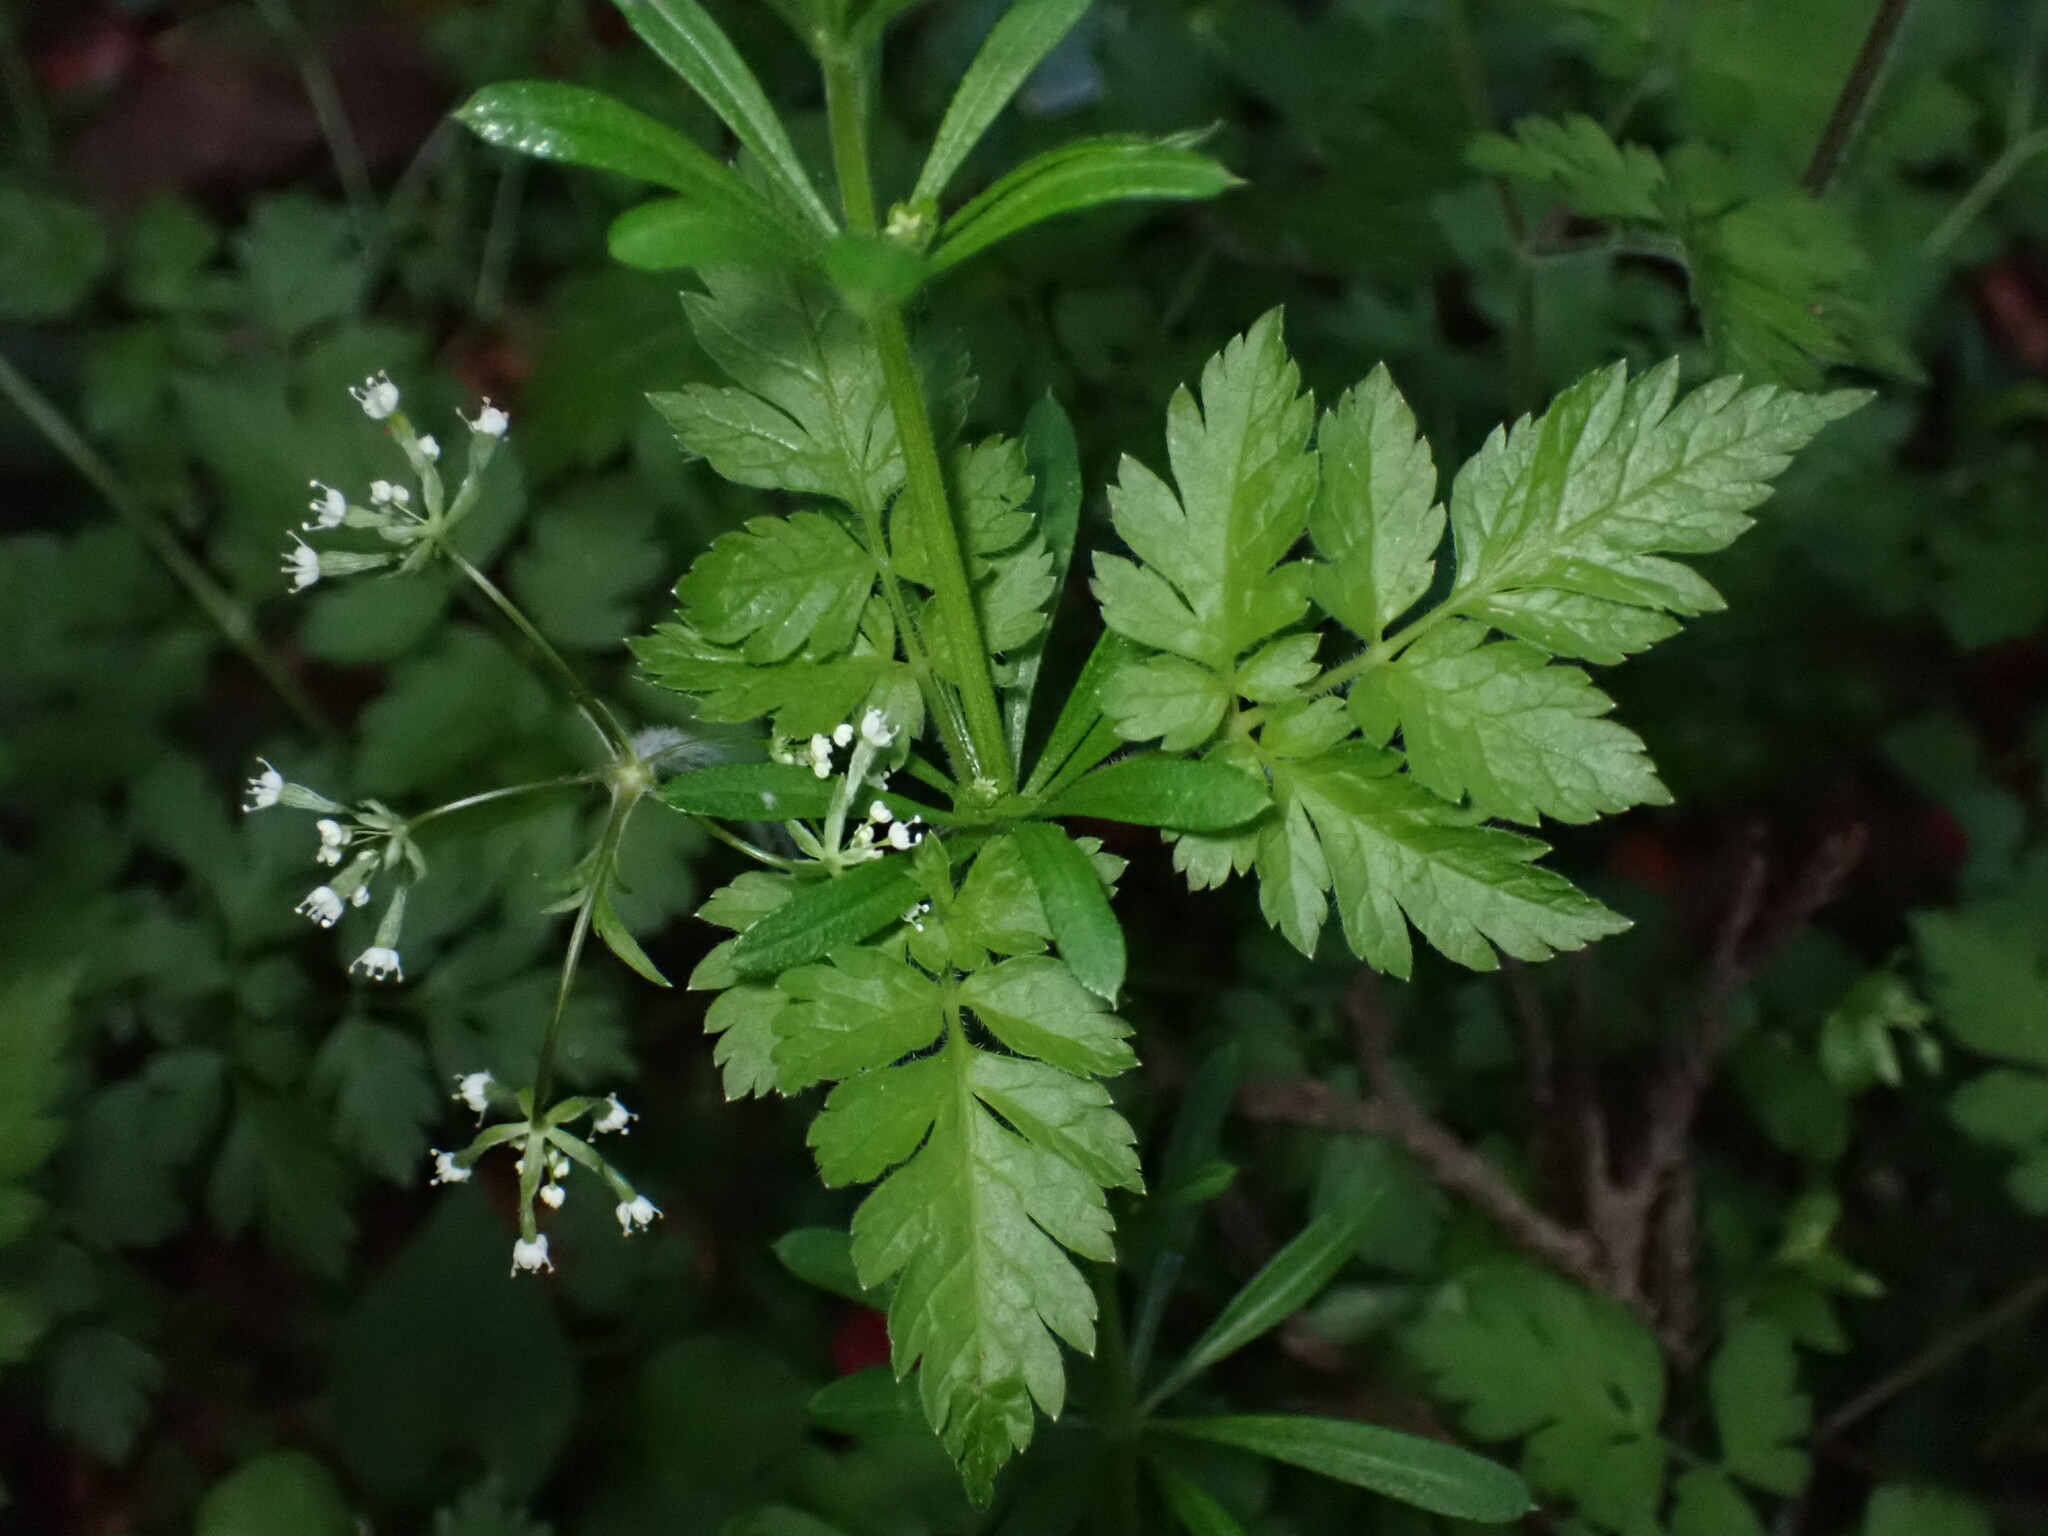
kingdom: Plantae
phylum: Tracheophyta
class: Magnoliopsida
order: Apiales
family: Apiaceae
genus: Osmorhiza
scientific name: Osmorhiza aristata
